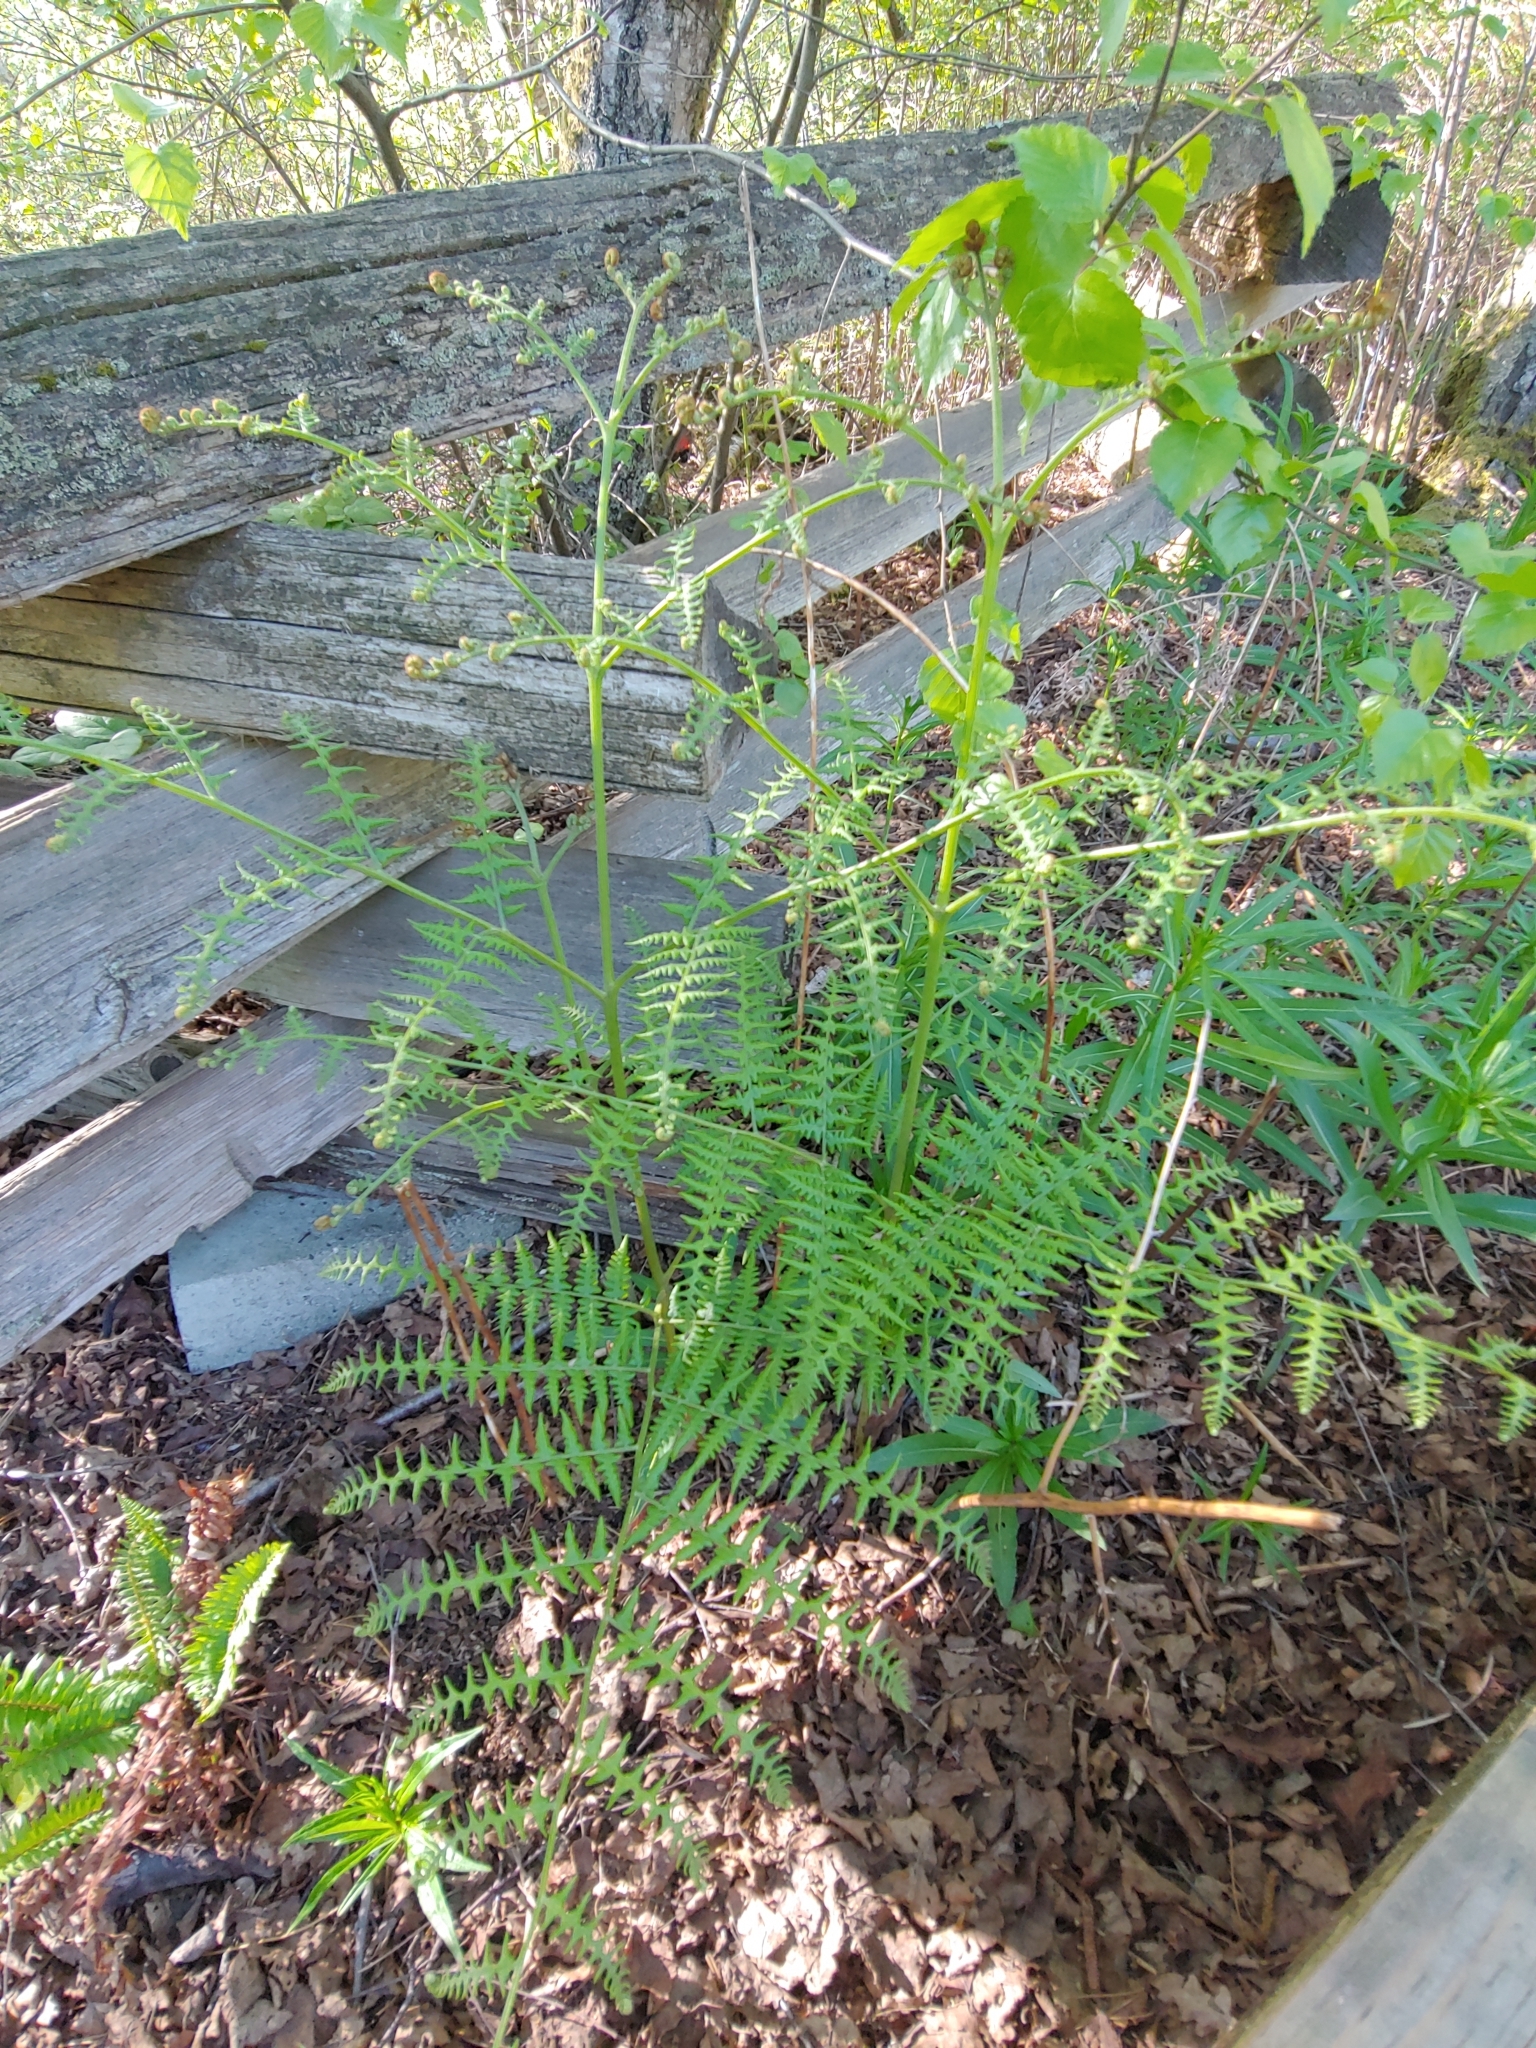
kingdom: Plantae
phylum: Tracheophyta
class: Polypodiopsida
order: Polypodiales
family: Dennstaedtiaceae
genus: Pteridium
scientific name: Pteridium aquilinum
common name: Bracken
